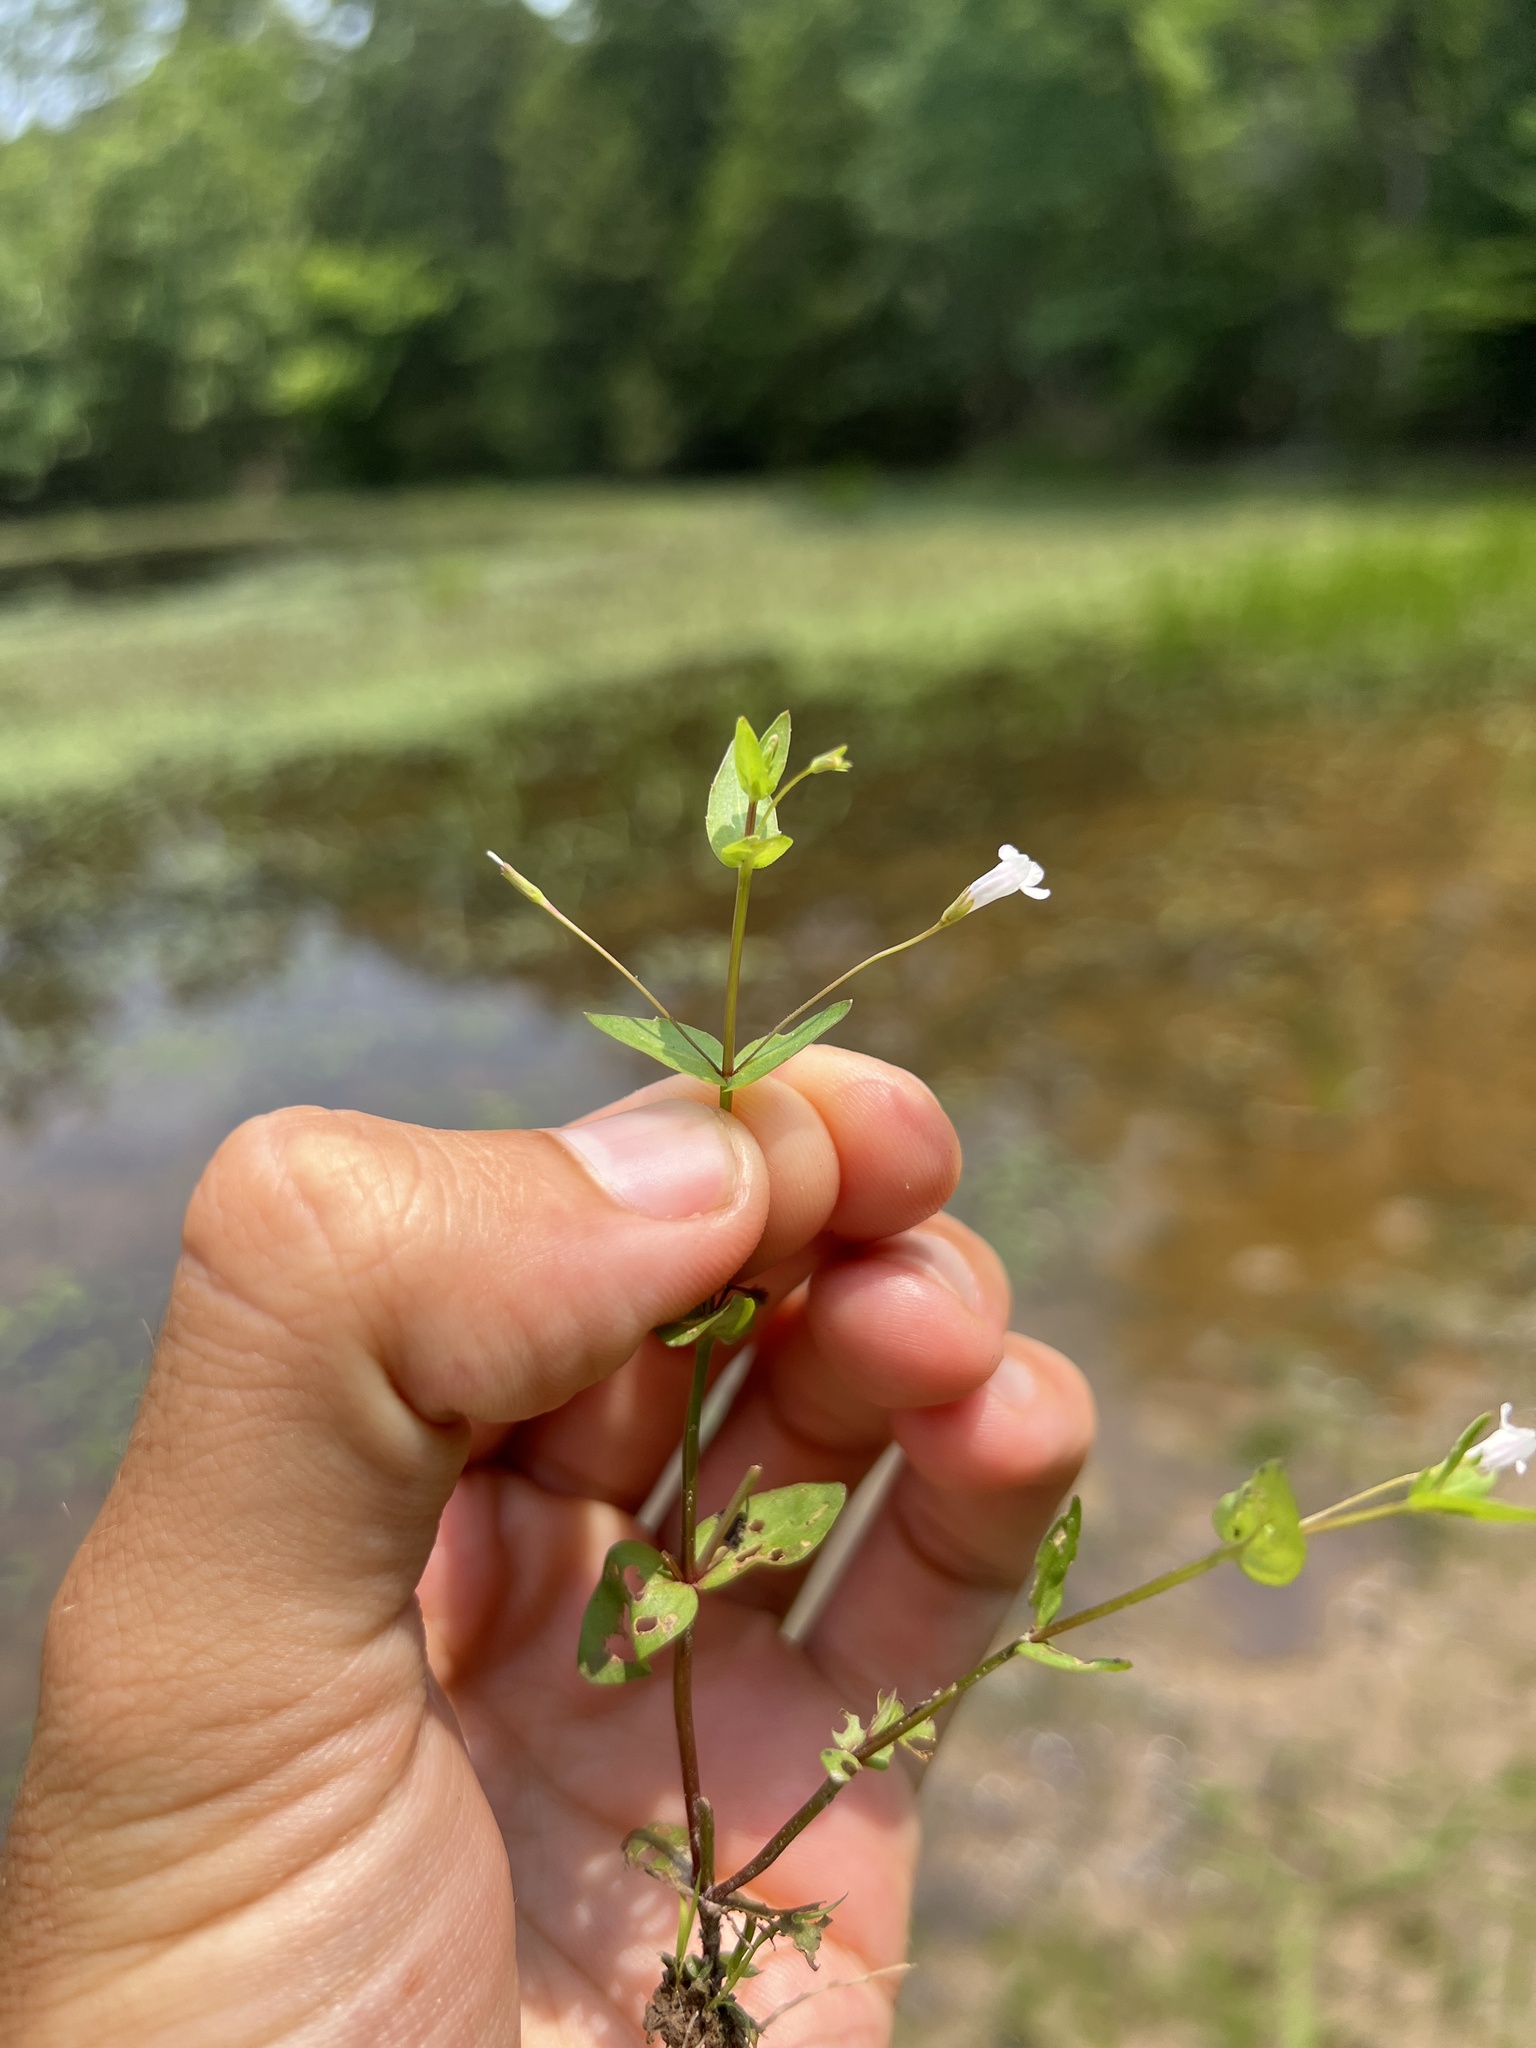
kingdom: Plantae
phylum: Tracheophyta
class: Magnoliopsida
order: Lamiales
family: Linderniaceae
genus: Lindernia
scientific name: Lindernia dubia
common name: Annual false pimpernel
